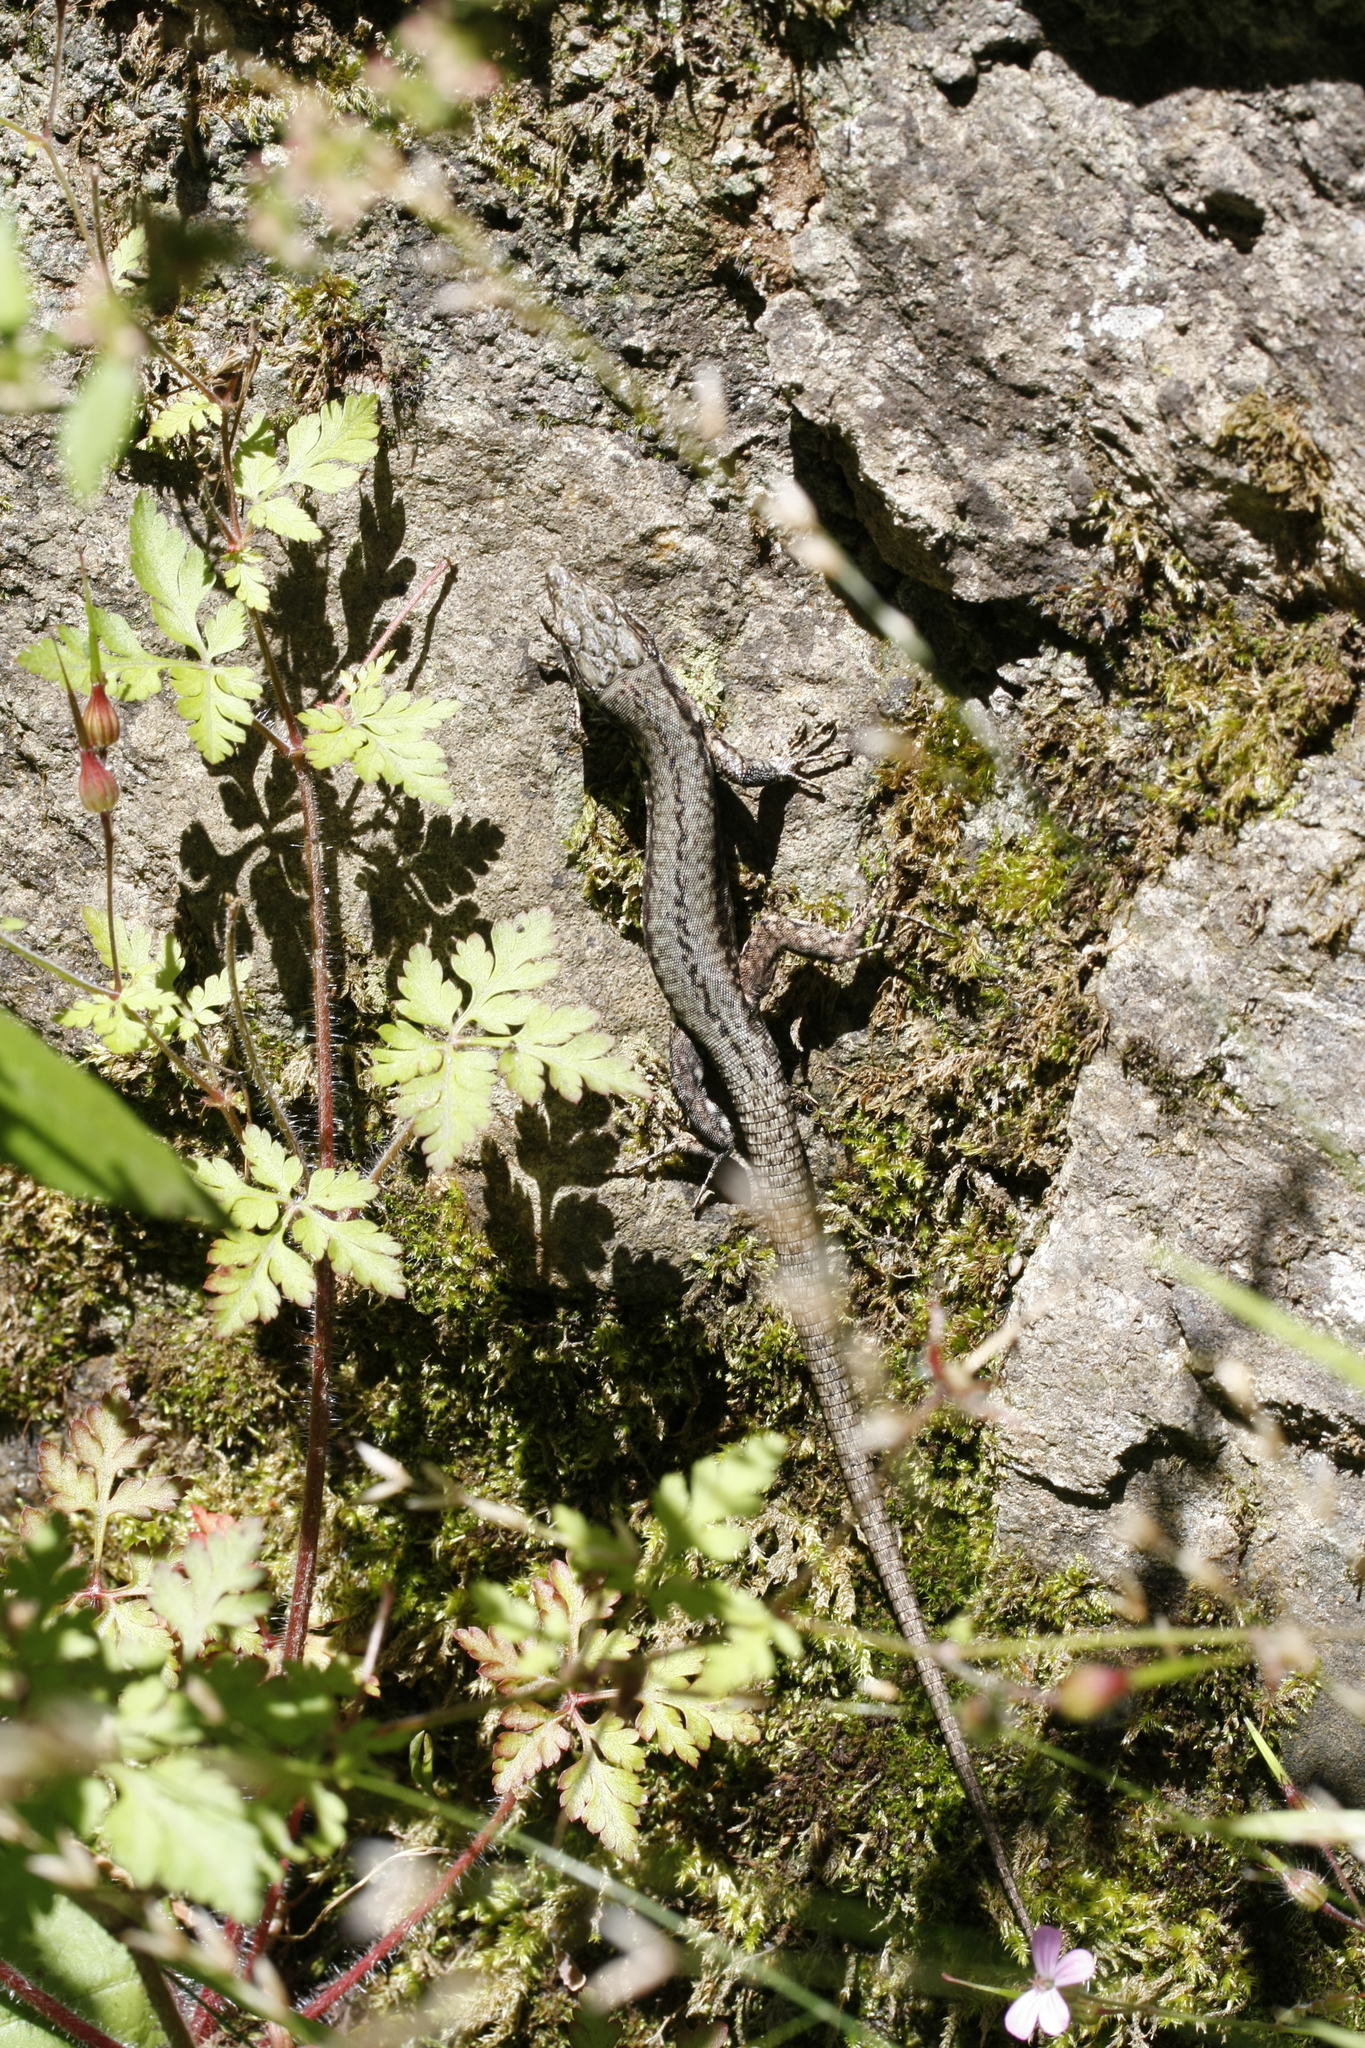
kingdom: Animalia
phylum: Chordata
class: Squamata
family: Lacertidae
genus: Podarcis
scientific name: Podarcis muralis
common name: Common wall lizard
